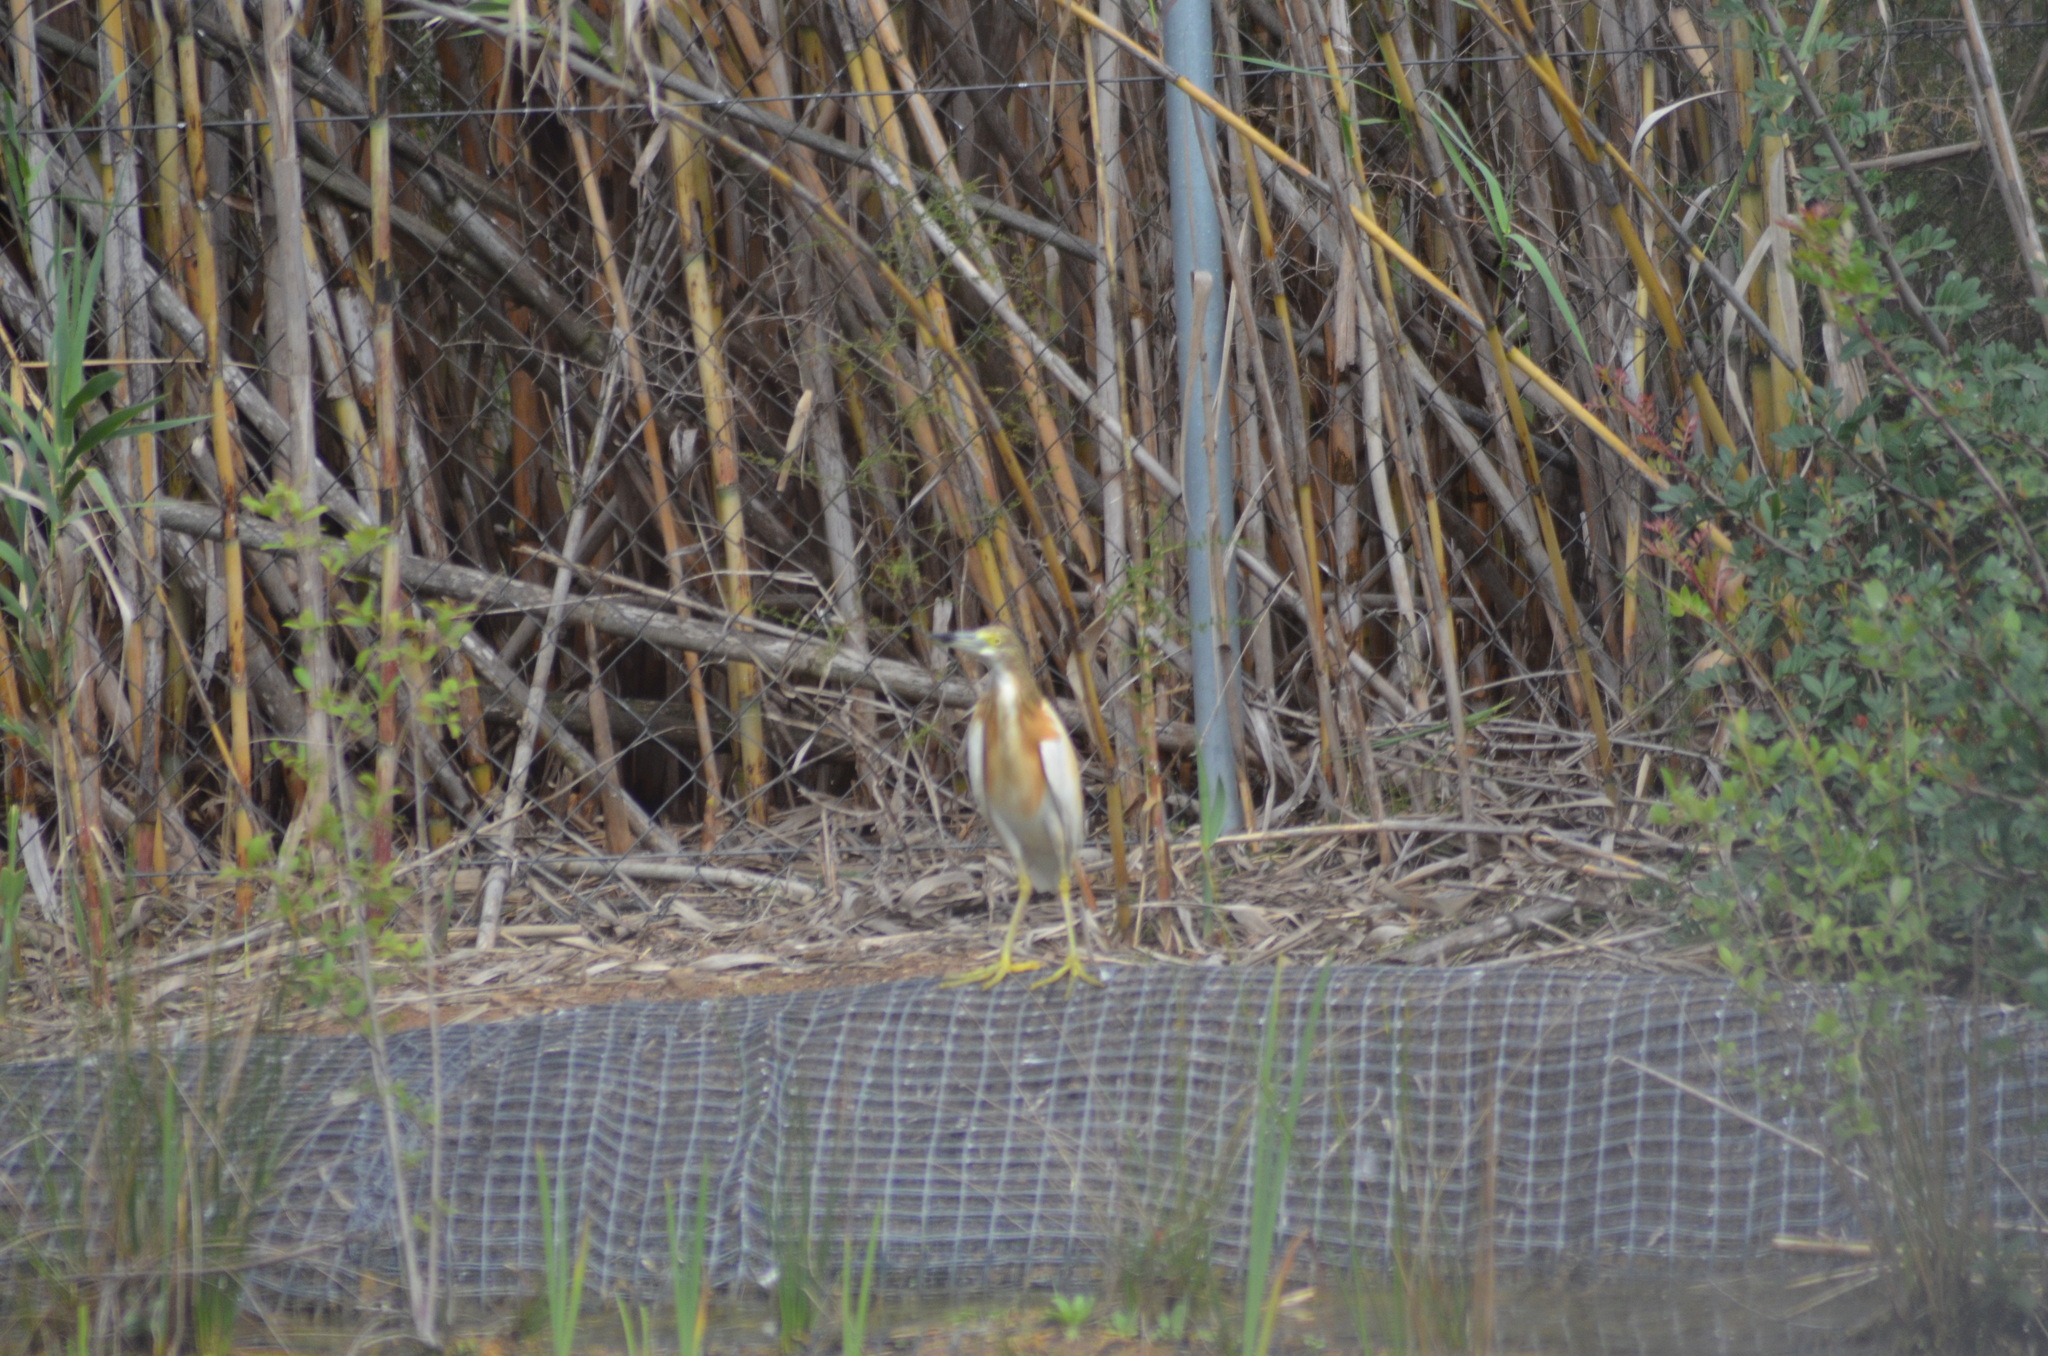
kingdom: Animalia
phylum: Chordata
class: Aves
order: Pelecaniformes
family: Ardeidae
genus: Ardeola
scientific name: Ardeola ralloides
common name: Squacco heron
